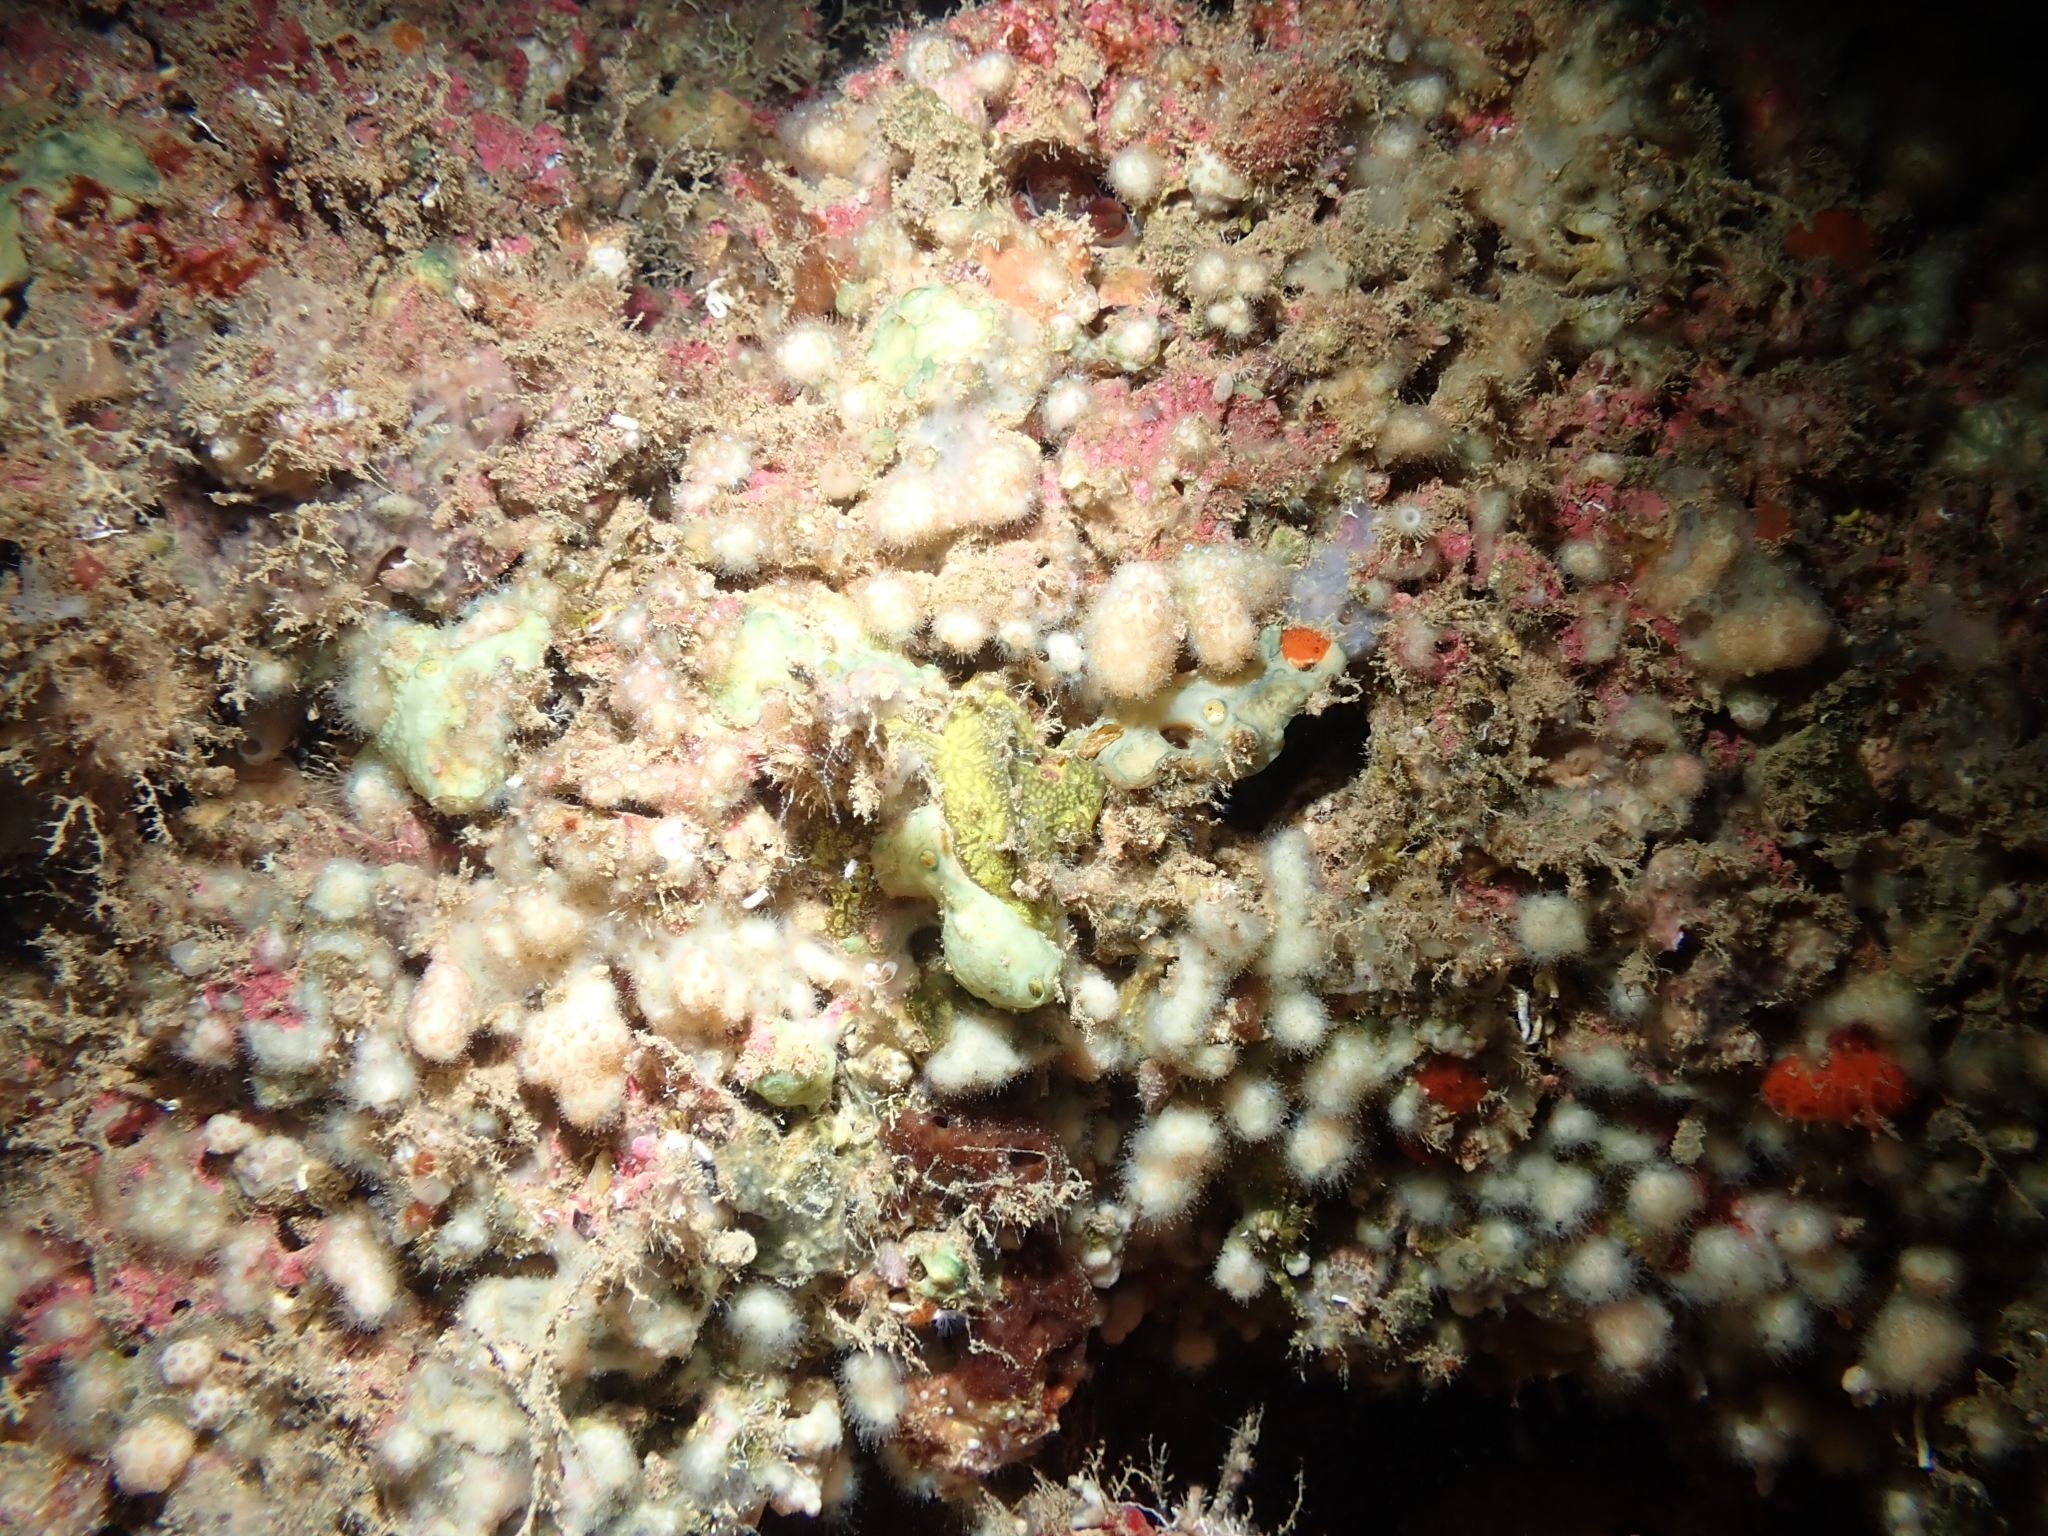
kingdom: Animalia
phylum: Cnidaria
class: Anthozoa
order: Scleractinia
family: Pocilloporidae
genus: Madracis
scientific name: Madracis pharensis
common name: Star coral
